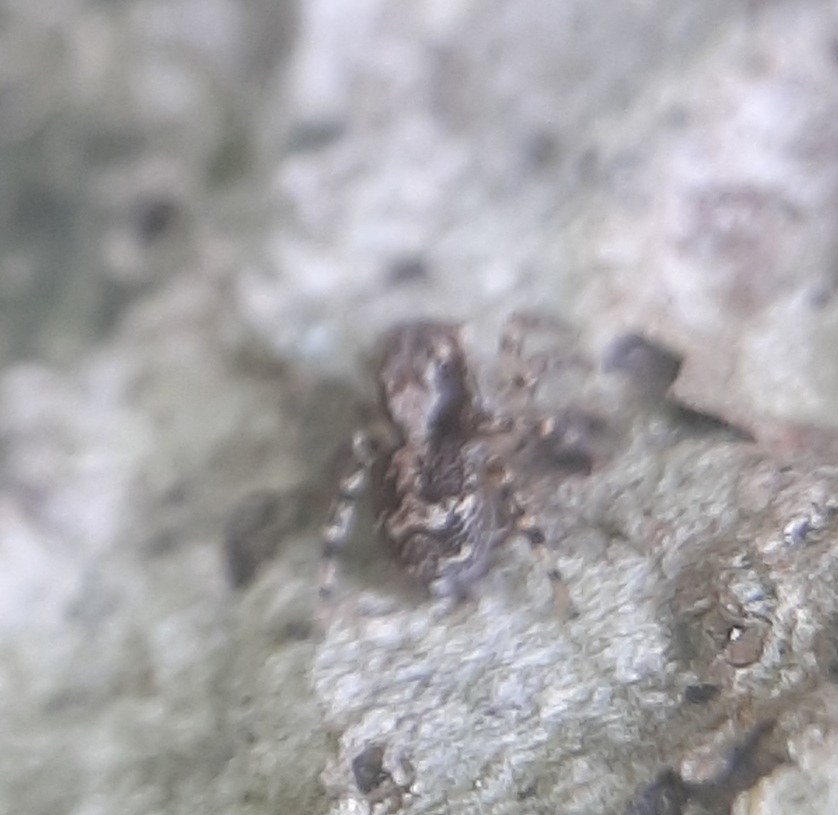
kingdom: Animalia
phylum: Arthropoda
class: Arachnida
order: Araneae
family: Salticidae
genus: Naphrys
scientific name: Naphrys pulex
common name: Flea jumping spider
